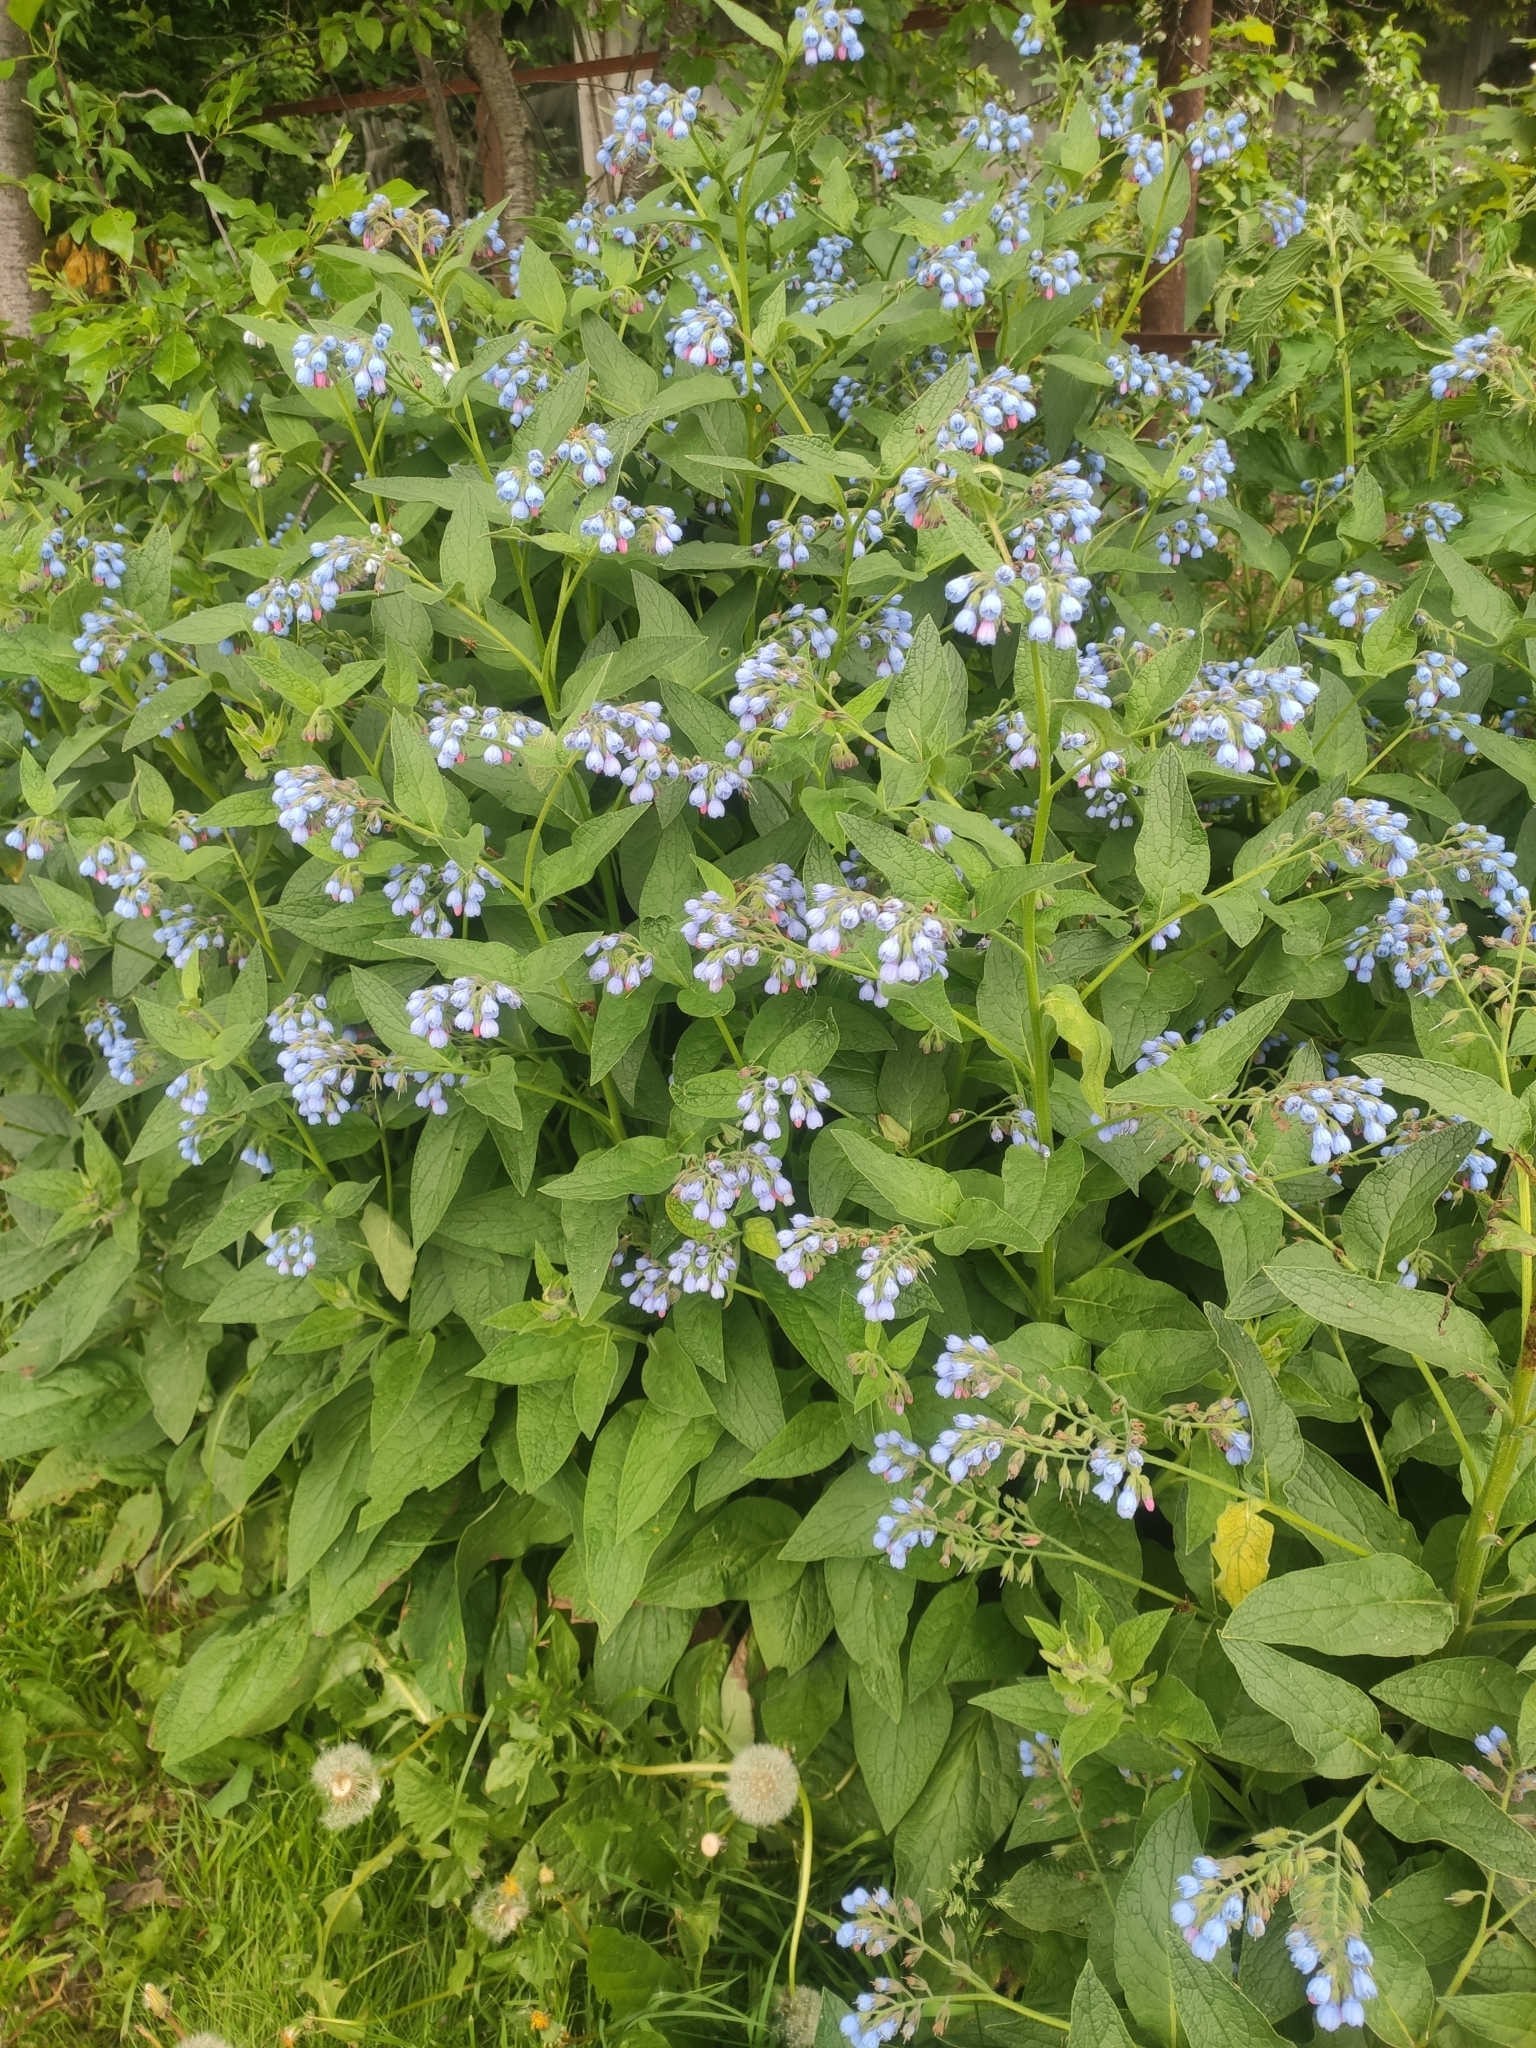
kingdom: Plantae
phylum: Tracheophyta
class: Magnoliopsida
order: Boraginales
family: Boraginaceae
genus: Symphytum
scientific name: Symphytum caucasicum
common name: Caucasian comfrey
